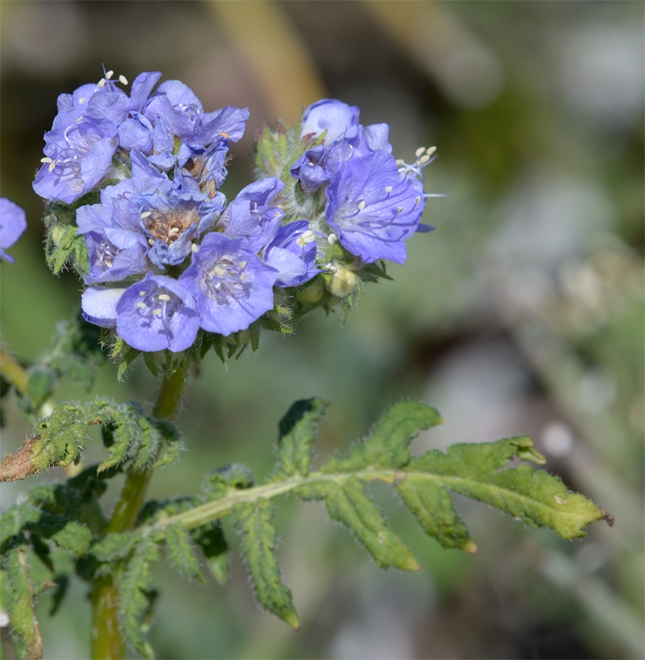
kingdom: Plantae
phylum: Tracheophyta
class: Magnoliopsida
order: Boraginales
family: Hydrophyllaceae
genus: Phacelia
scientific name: Phacelia distans
